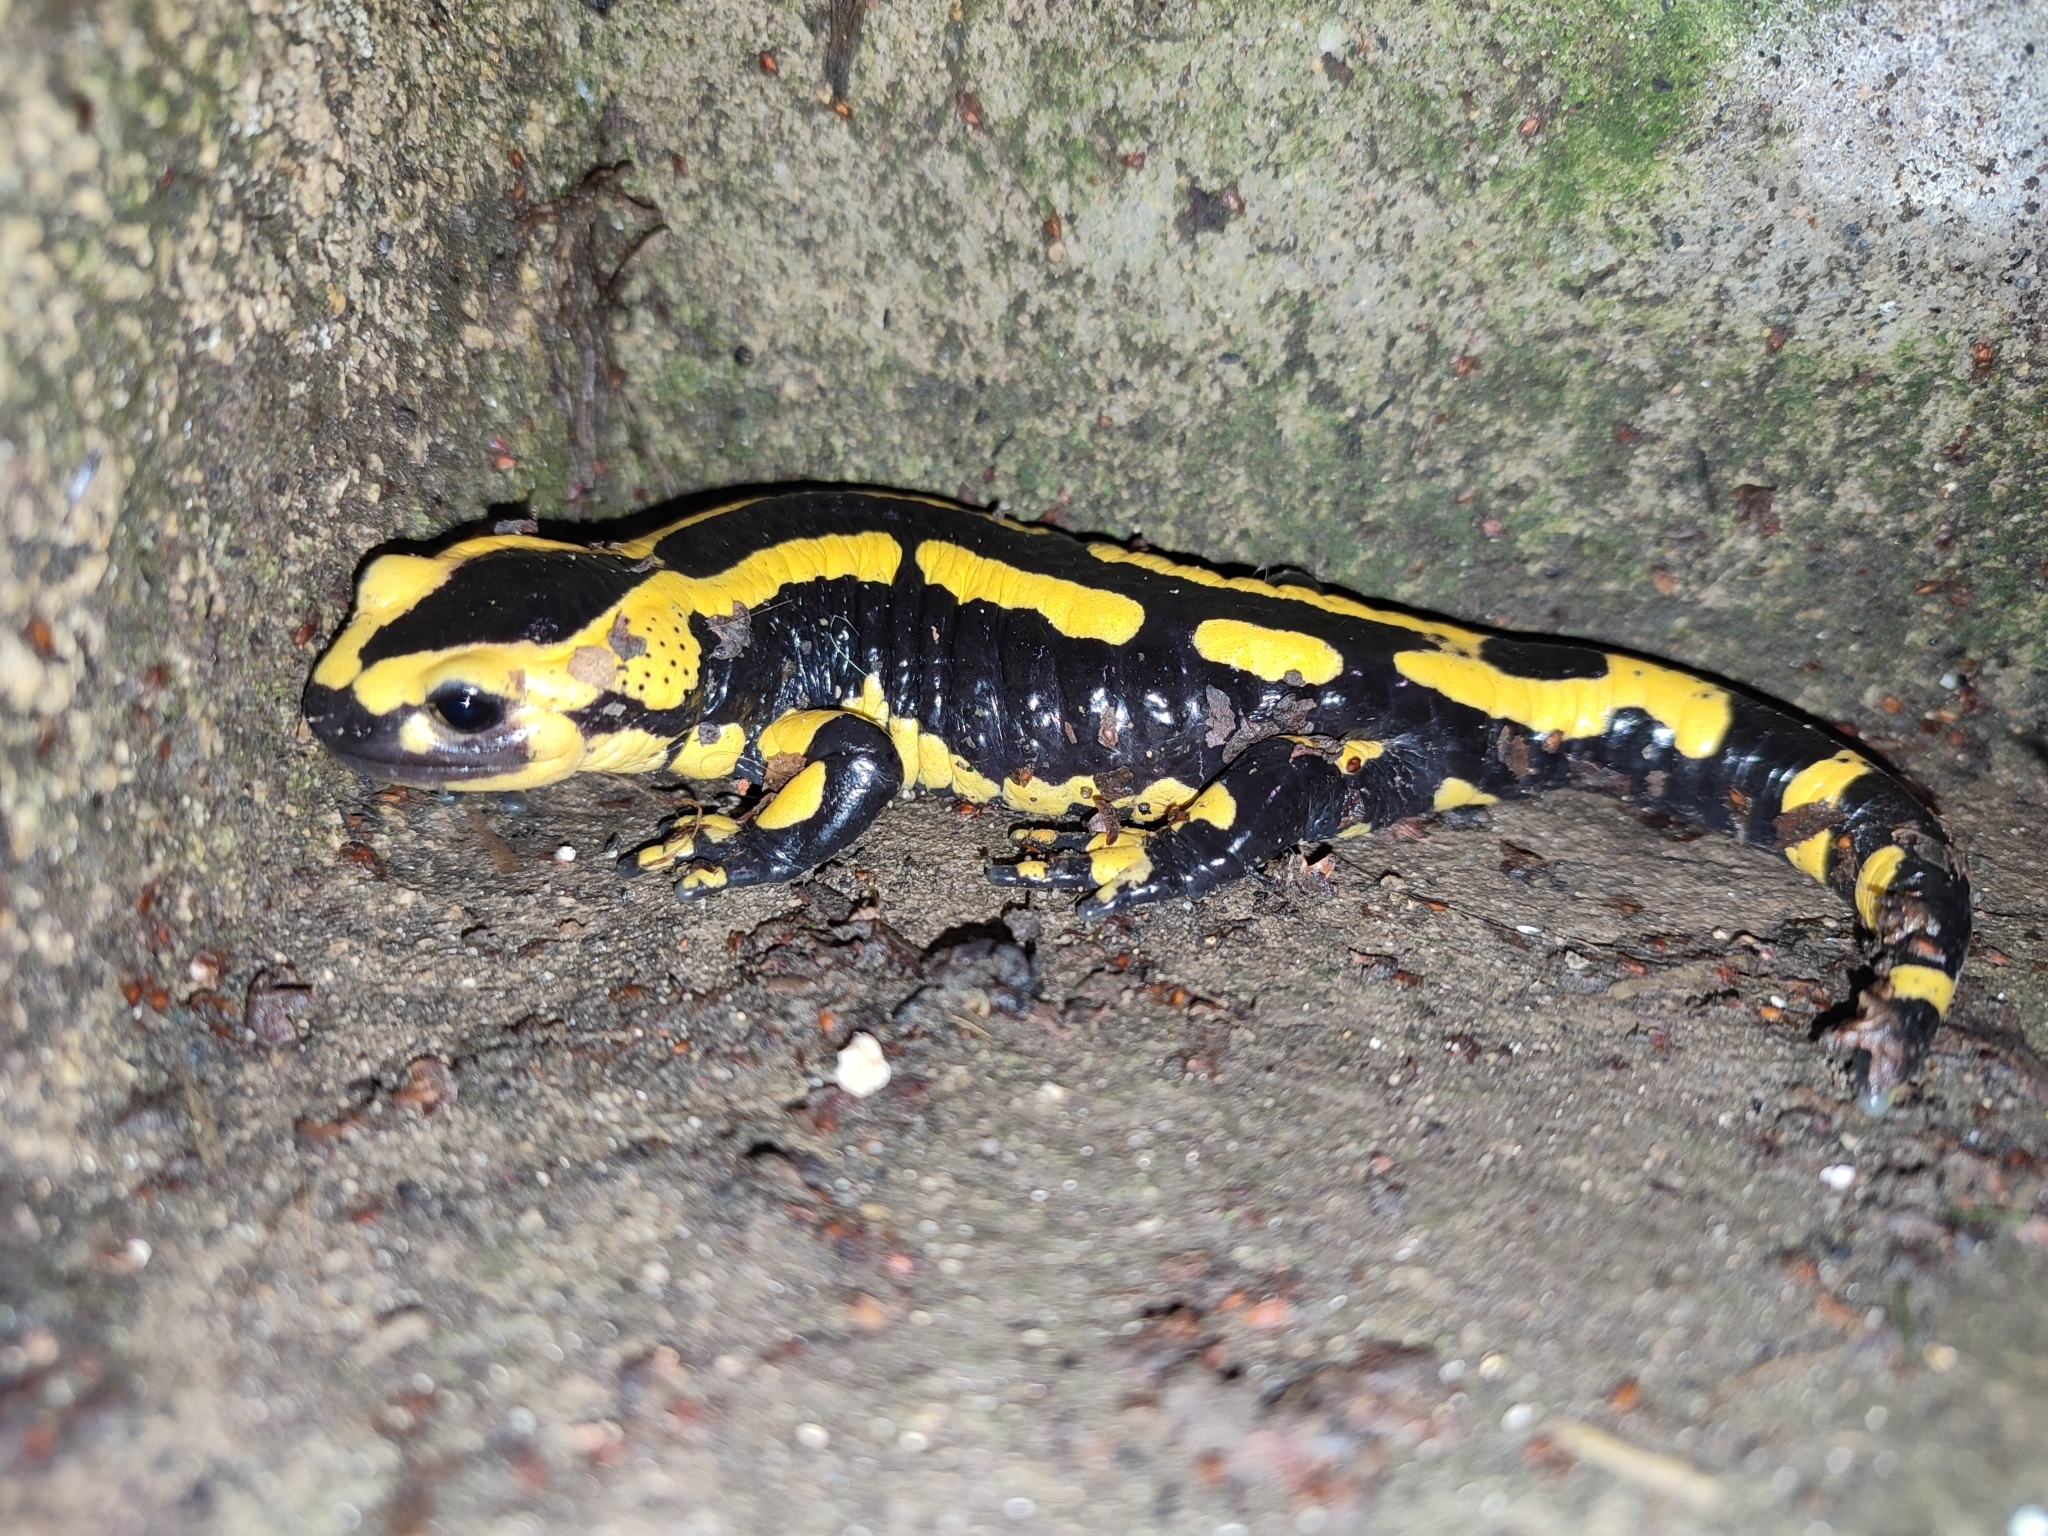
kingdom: Animalia
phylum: Chordata
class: Amphibia
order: Caudata
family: Salamandridae
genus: Salamandra
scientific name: Salamandra salamandra
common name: Fire salamander
